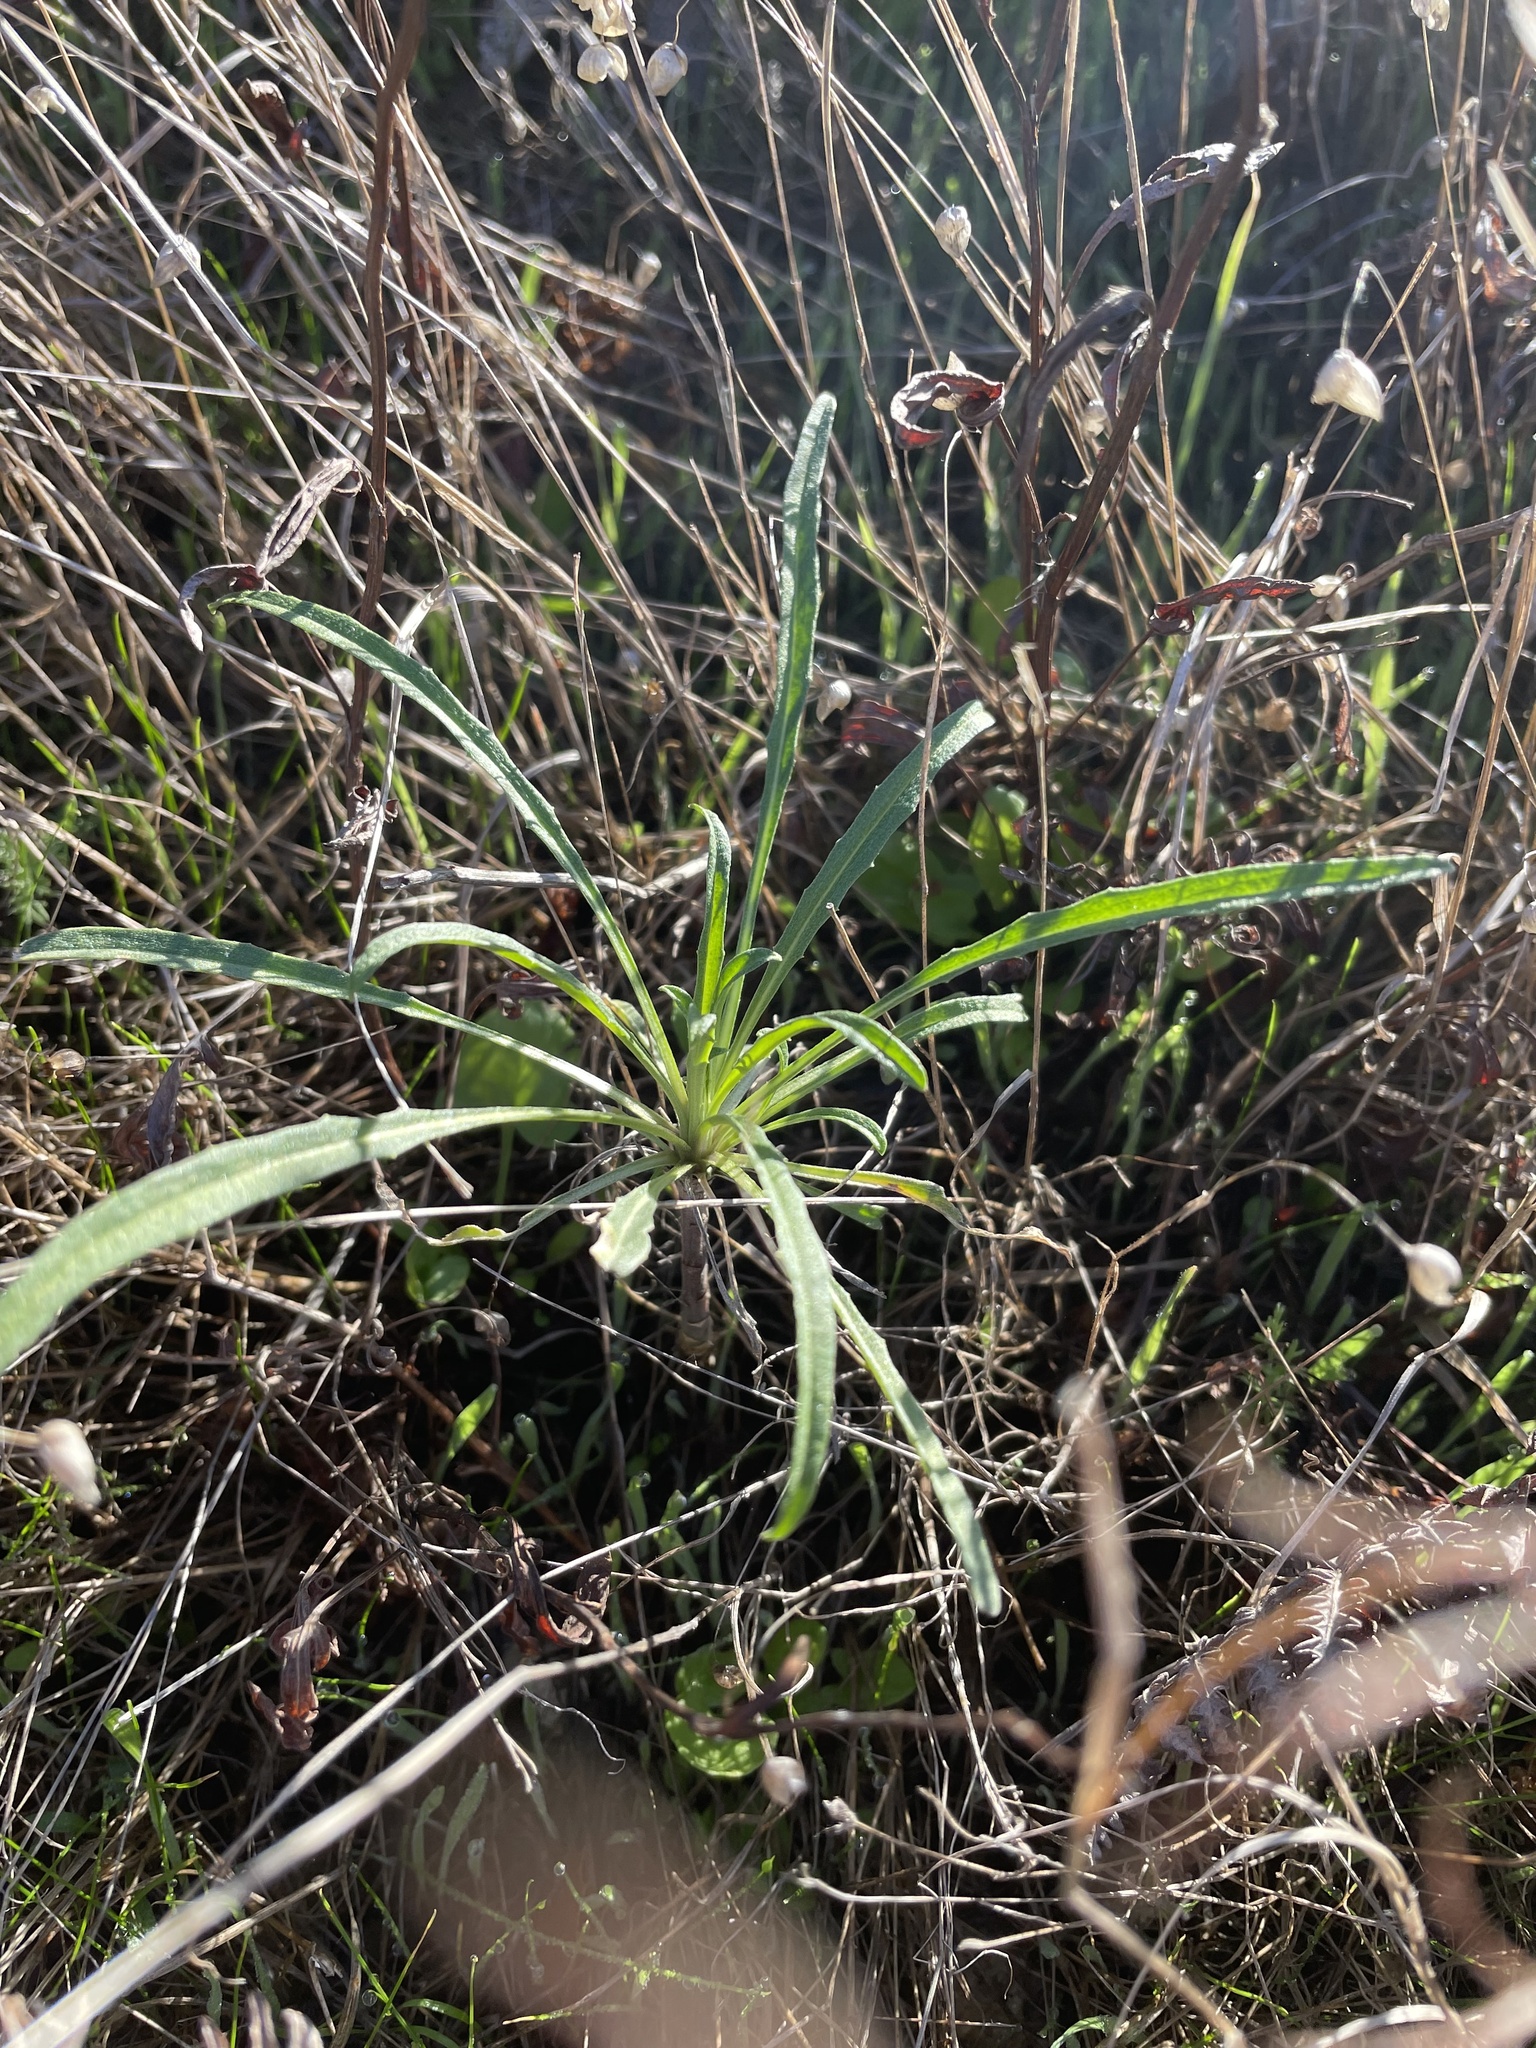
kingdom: Plantae
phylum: Tracheophyta
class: Magnoliopsida
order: Brassicales
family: Brassicaceae
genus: Erysimum
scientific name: Erysimum franciscanum
